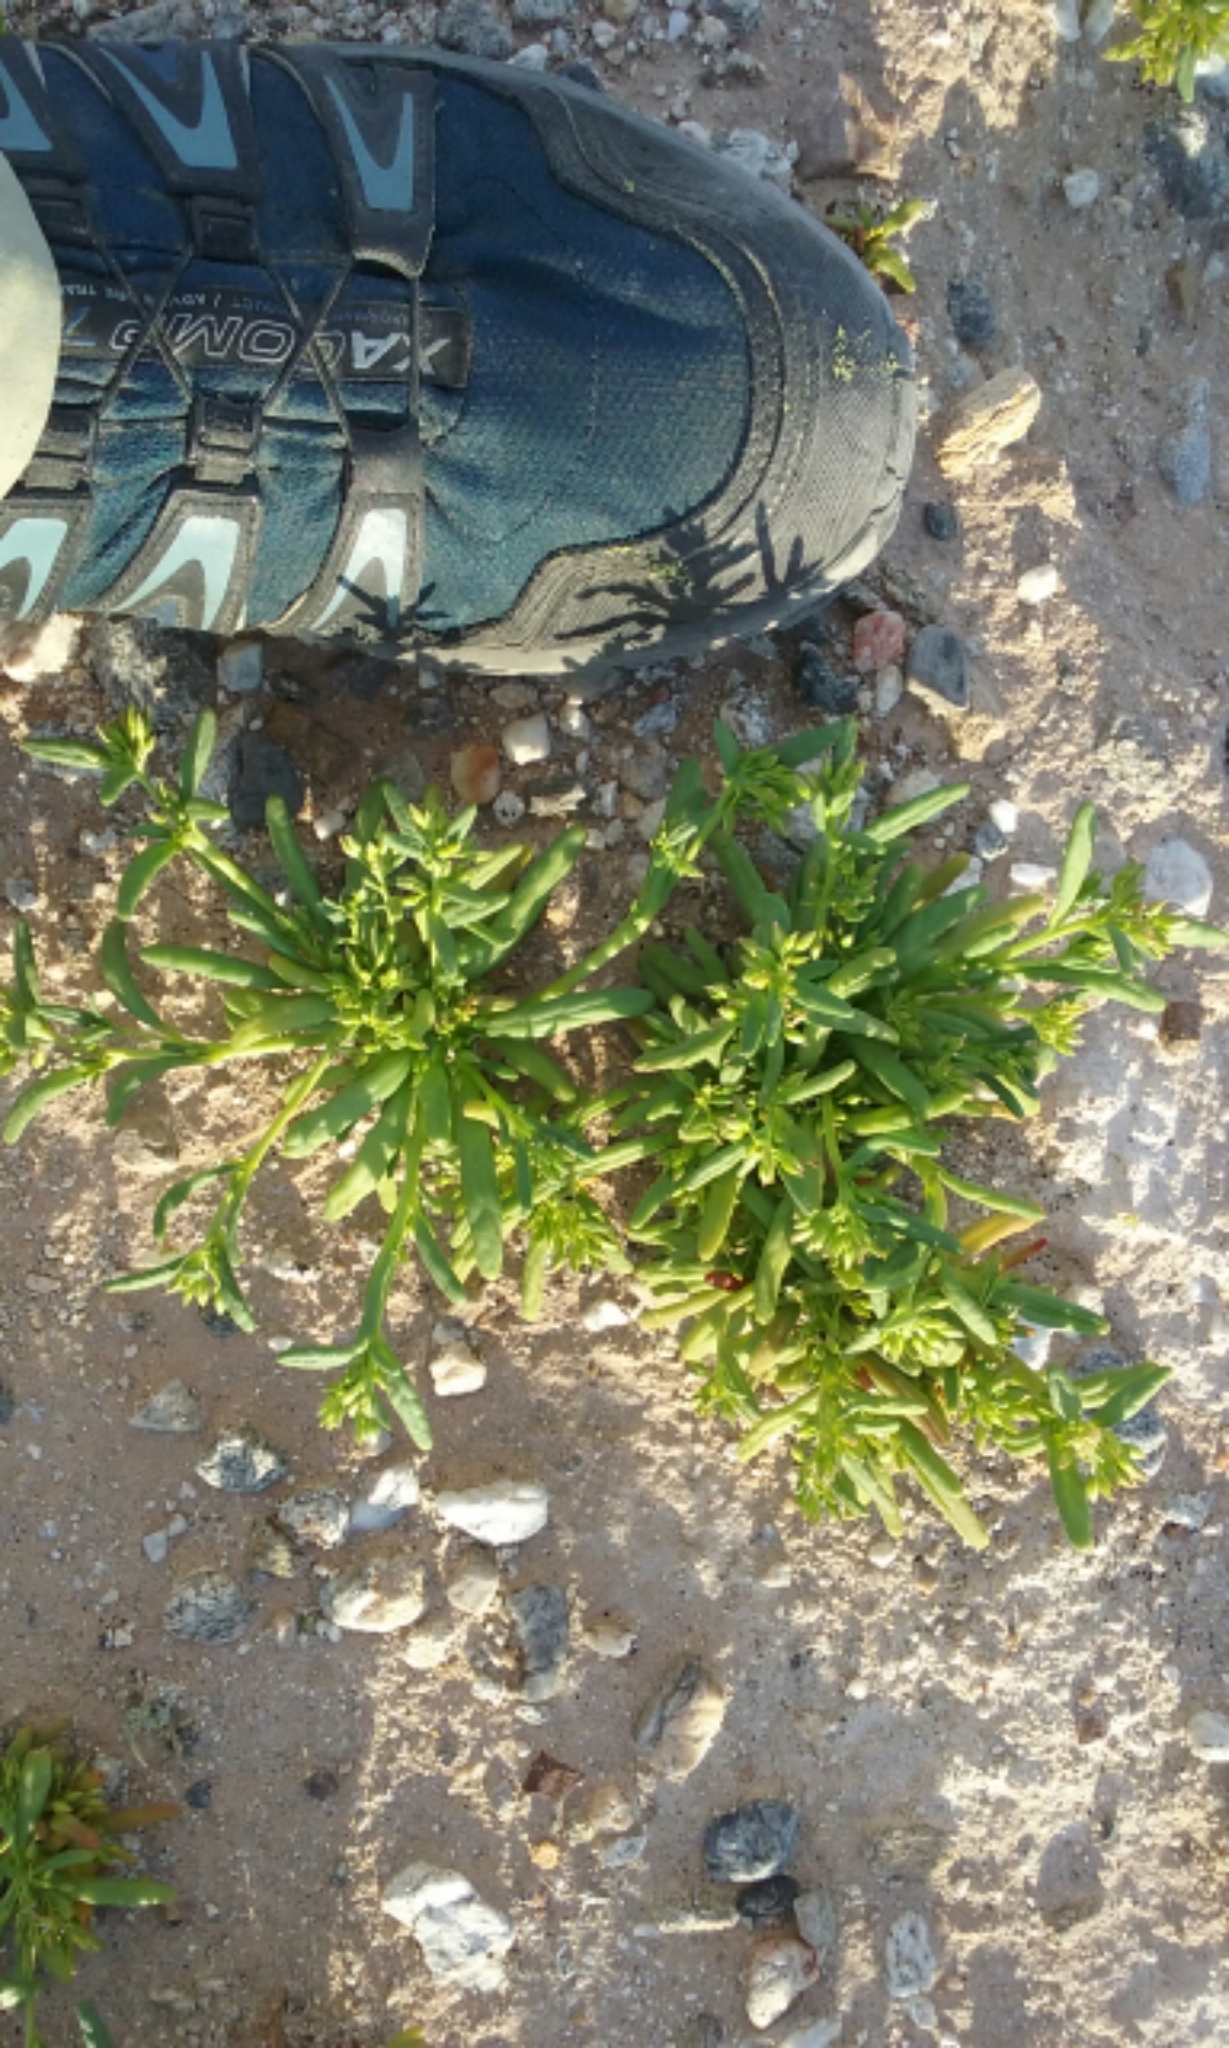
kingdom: Plantae
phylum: Tracheophyta
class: Magnoliopsida
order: Caryophyllales
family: Montiaceae
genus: Thingia
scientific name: Thingia ambigua
